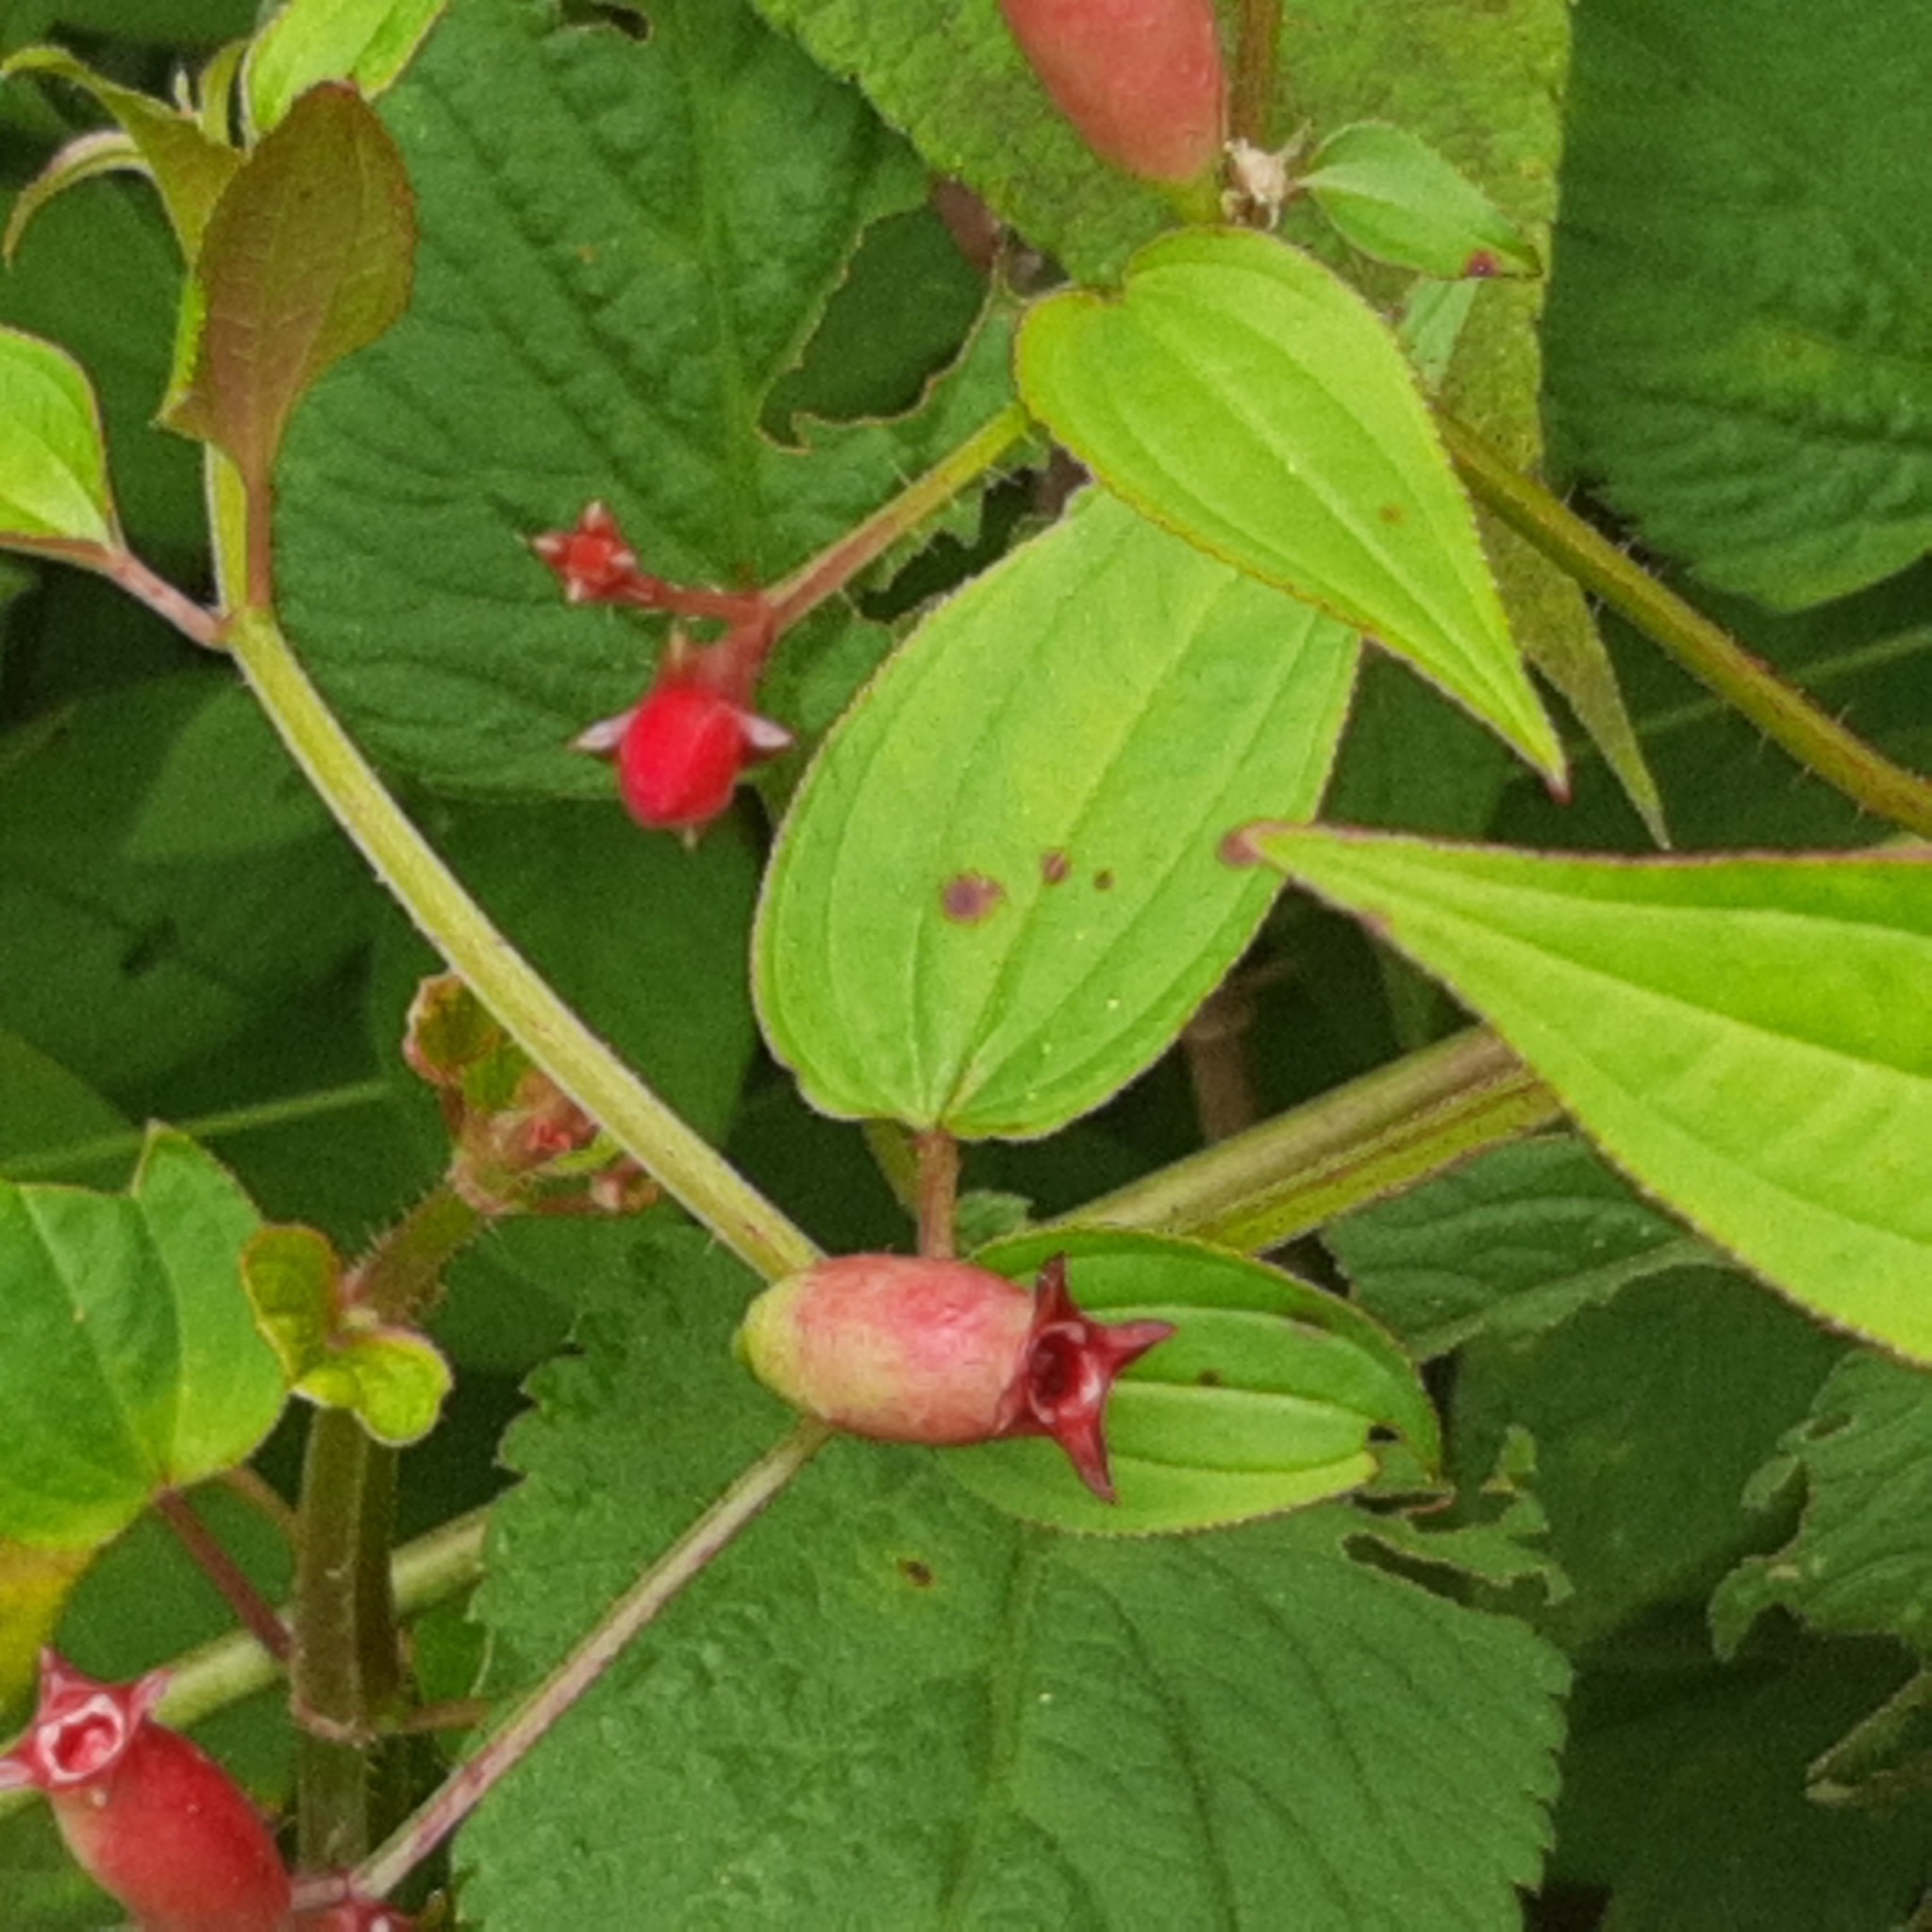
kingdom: Plantae
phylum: Tracheophyta
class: Magnoliopsida
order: Myrtales
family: Melastomataceae
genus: Arthrostemma
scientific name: Arthrostemma ciliatum
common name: Everblooming eavender
